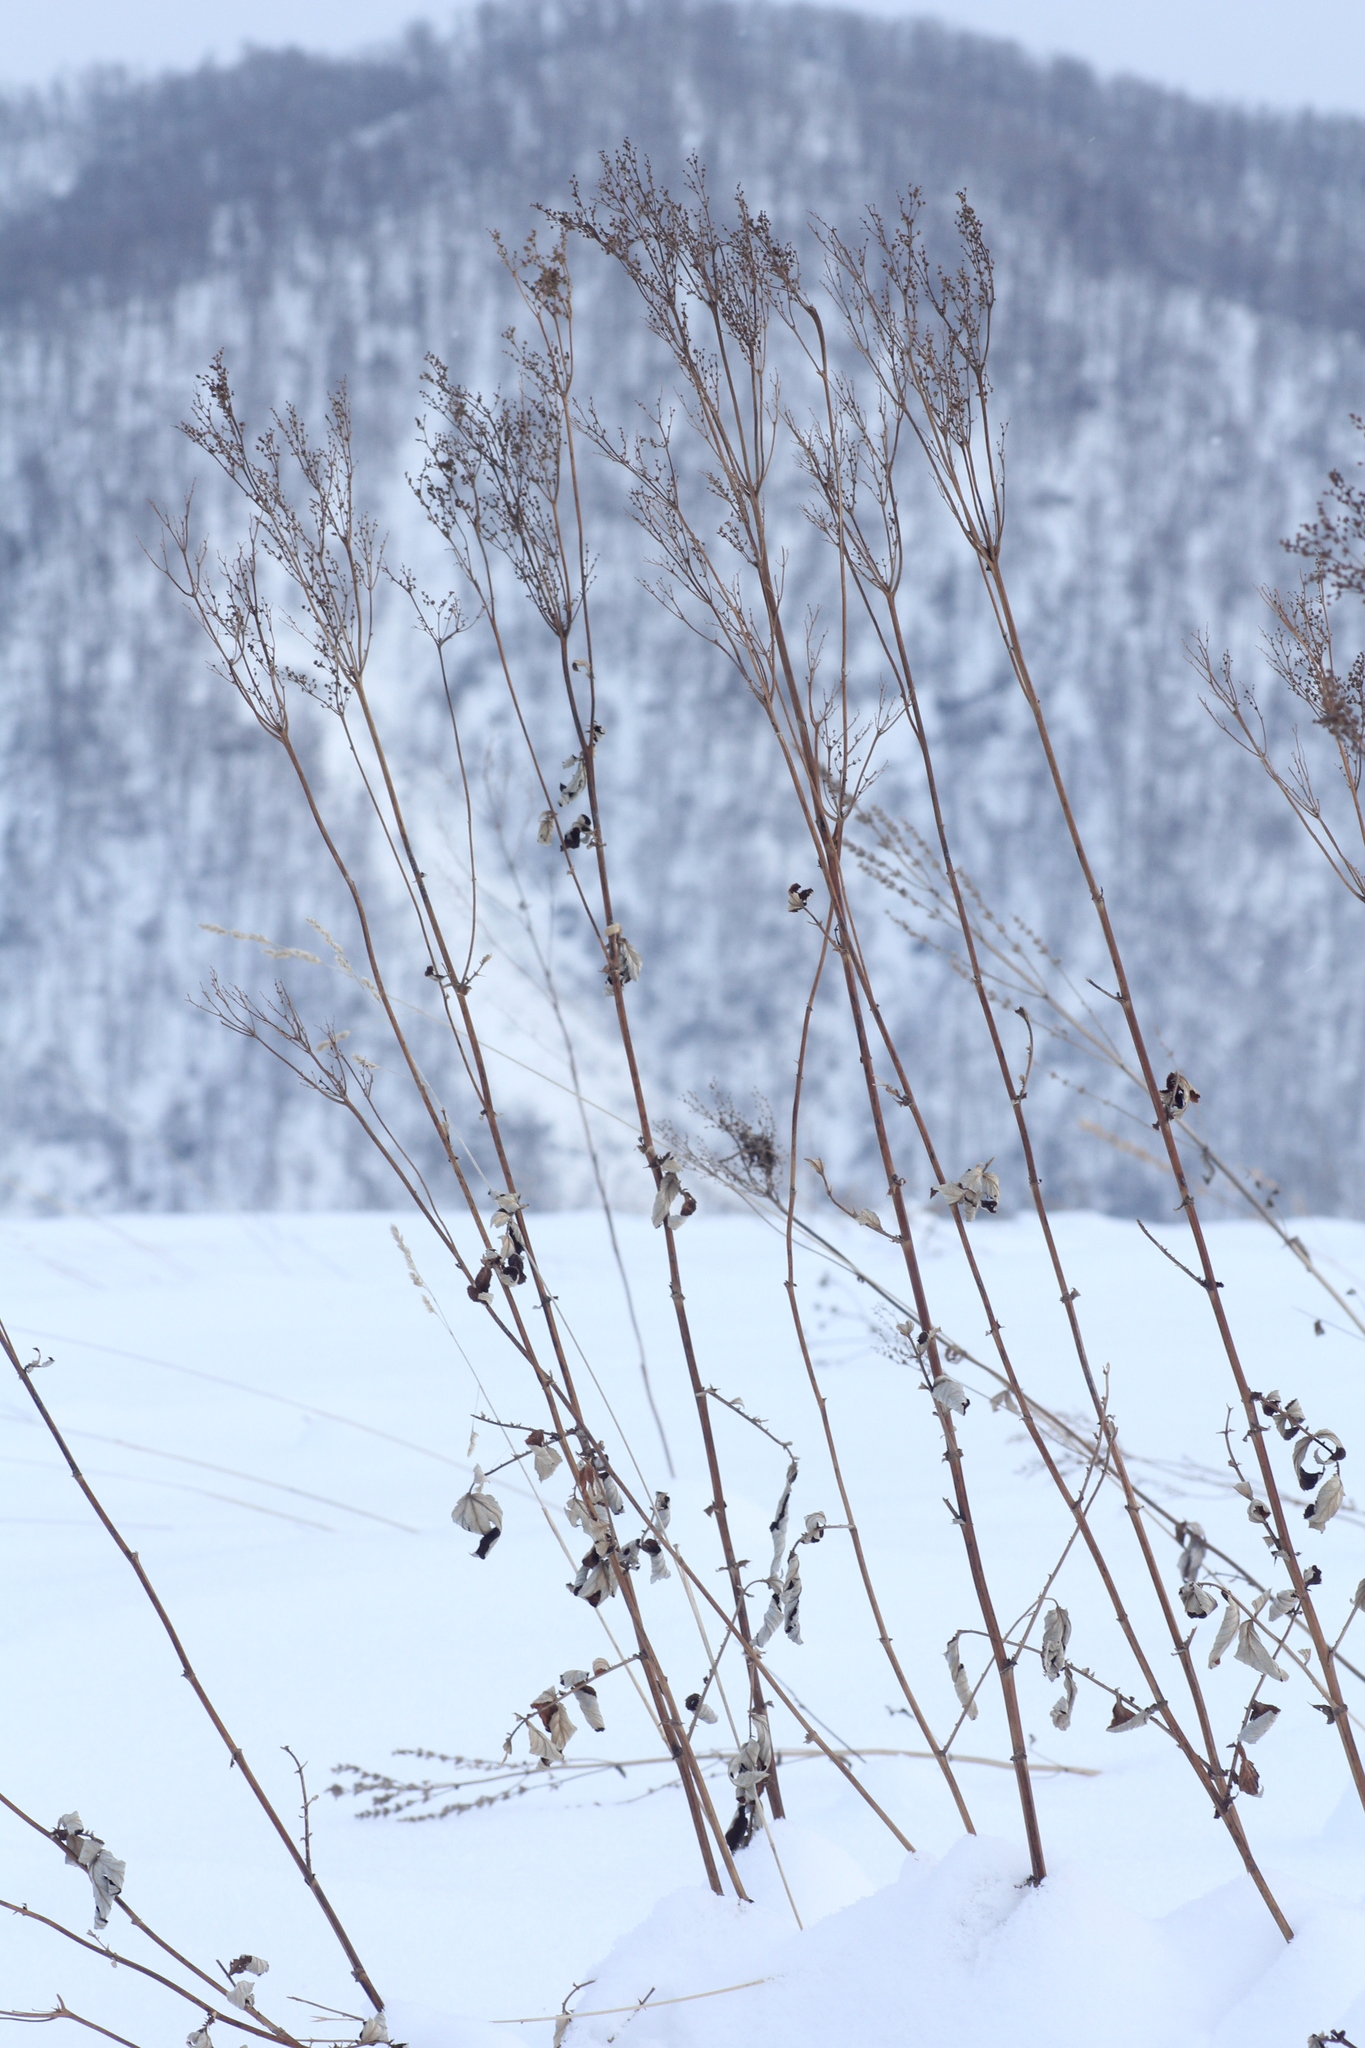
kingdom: Plantae
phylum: Tracheophyta
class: Magnoliopsida
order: Rosales
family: Rosaceae
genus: Filipendula
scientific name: Filipendula ulmaria
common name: Meadowsweet
